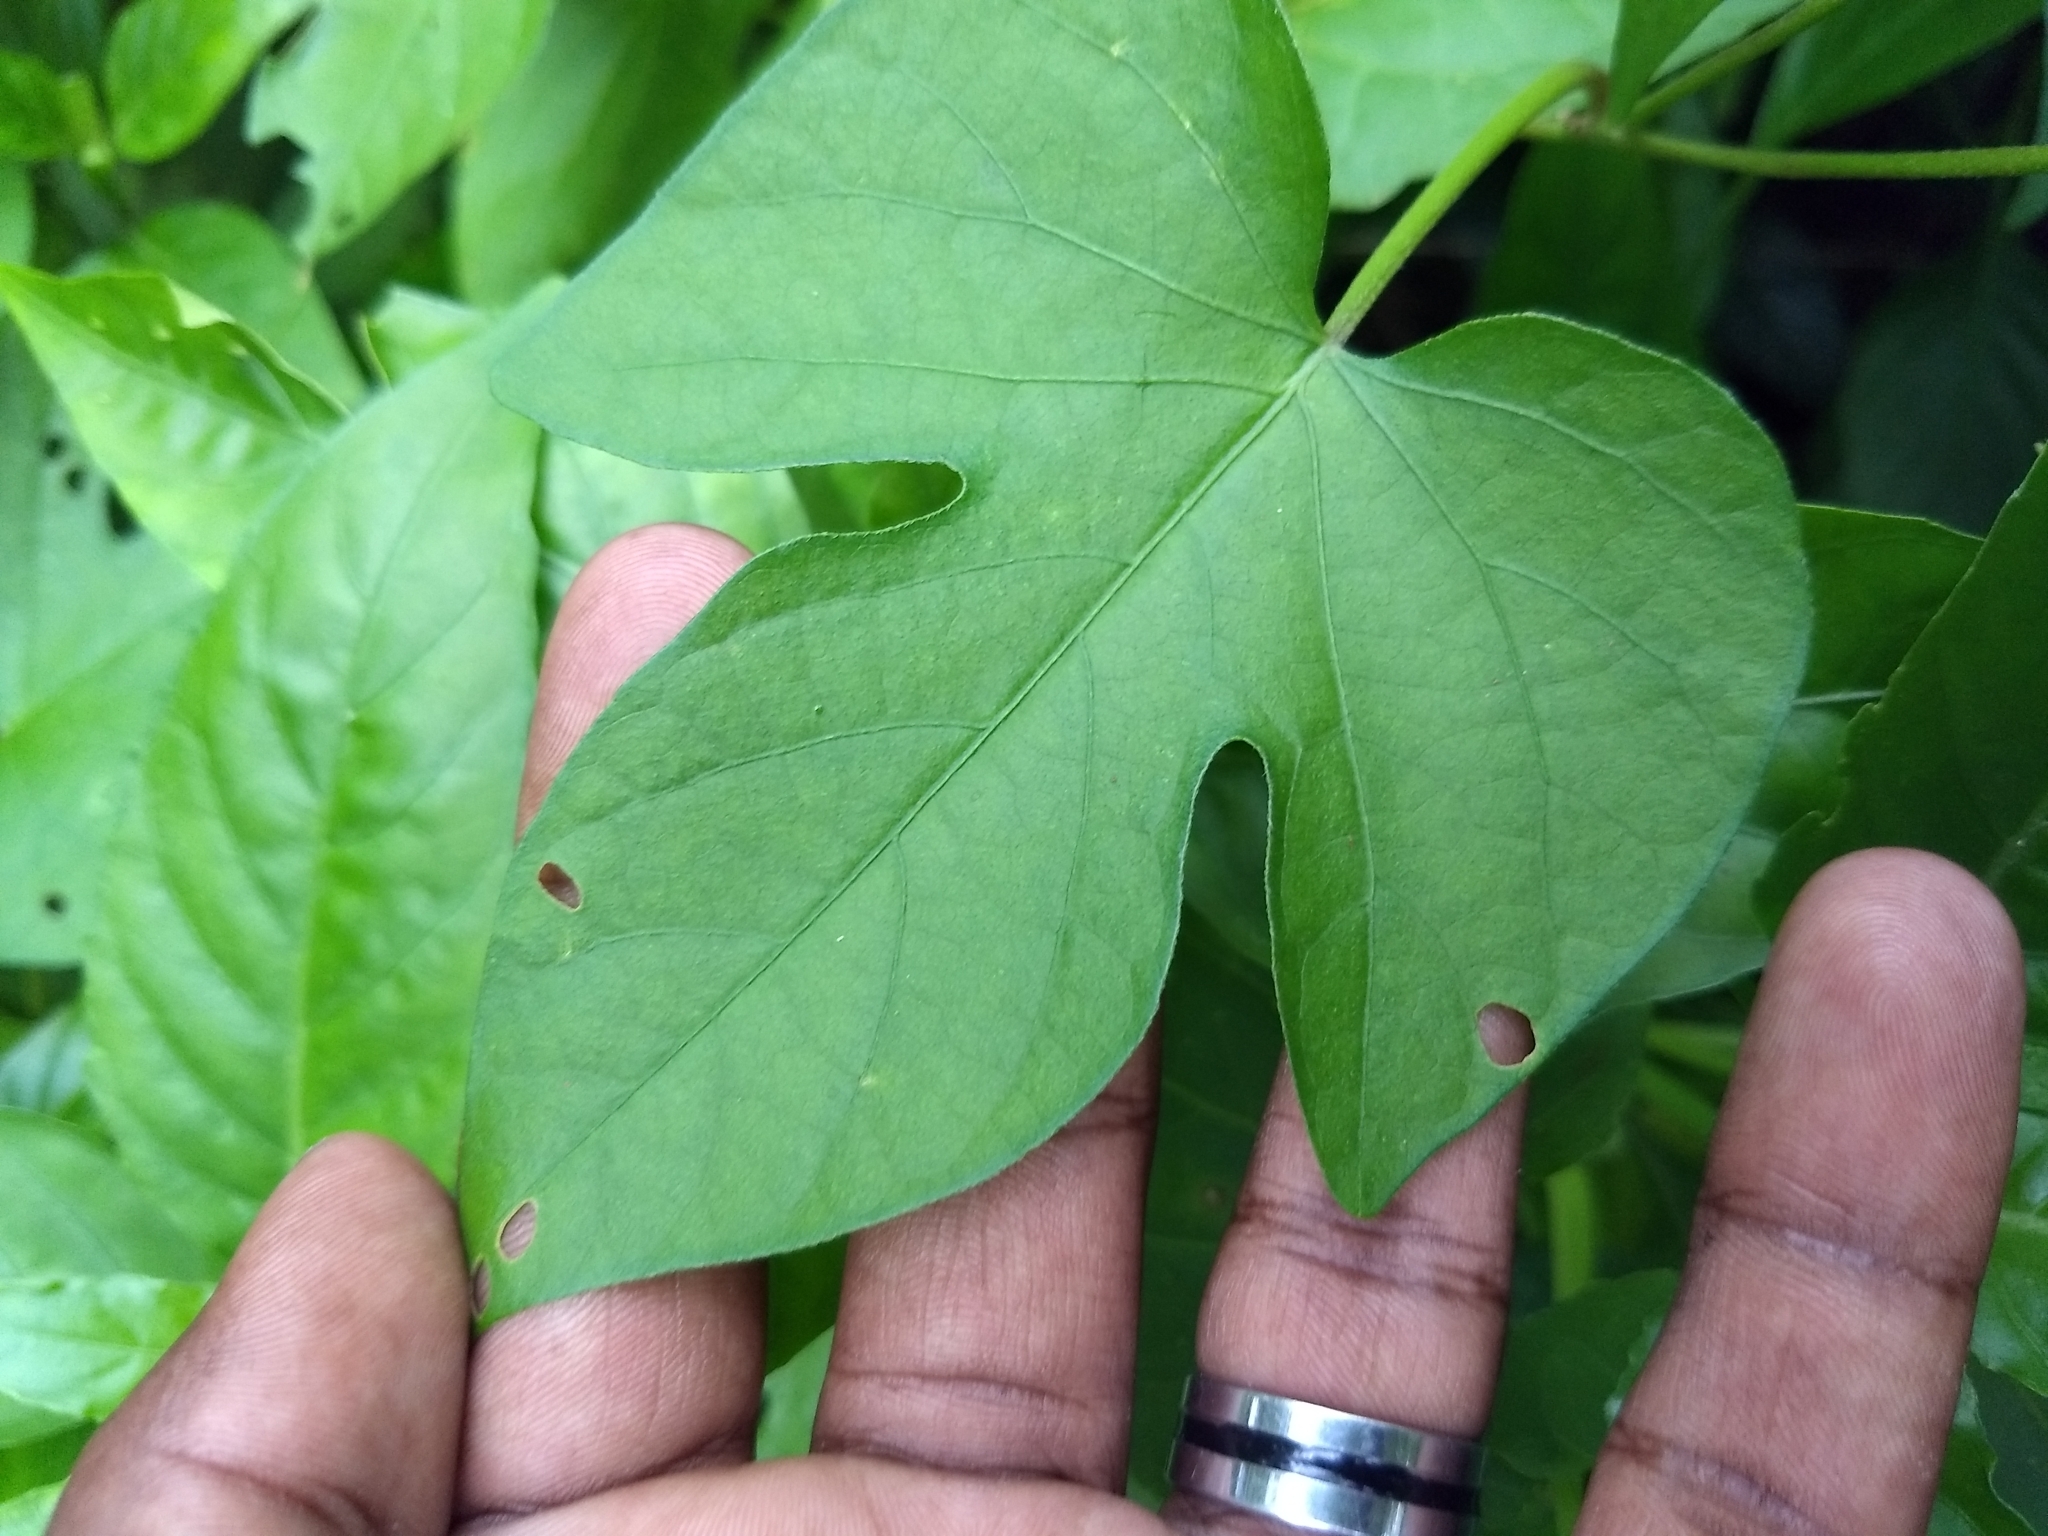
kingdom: Plantae
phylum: Tracheophyta
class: Magnoliopsida
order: Solanales
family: Convolvulaceae
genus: Ipomoea
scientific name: Ipomoea indica
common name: Blue dawnflower
